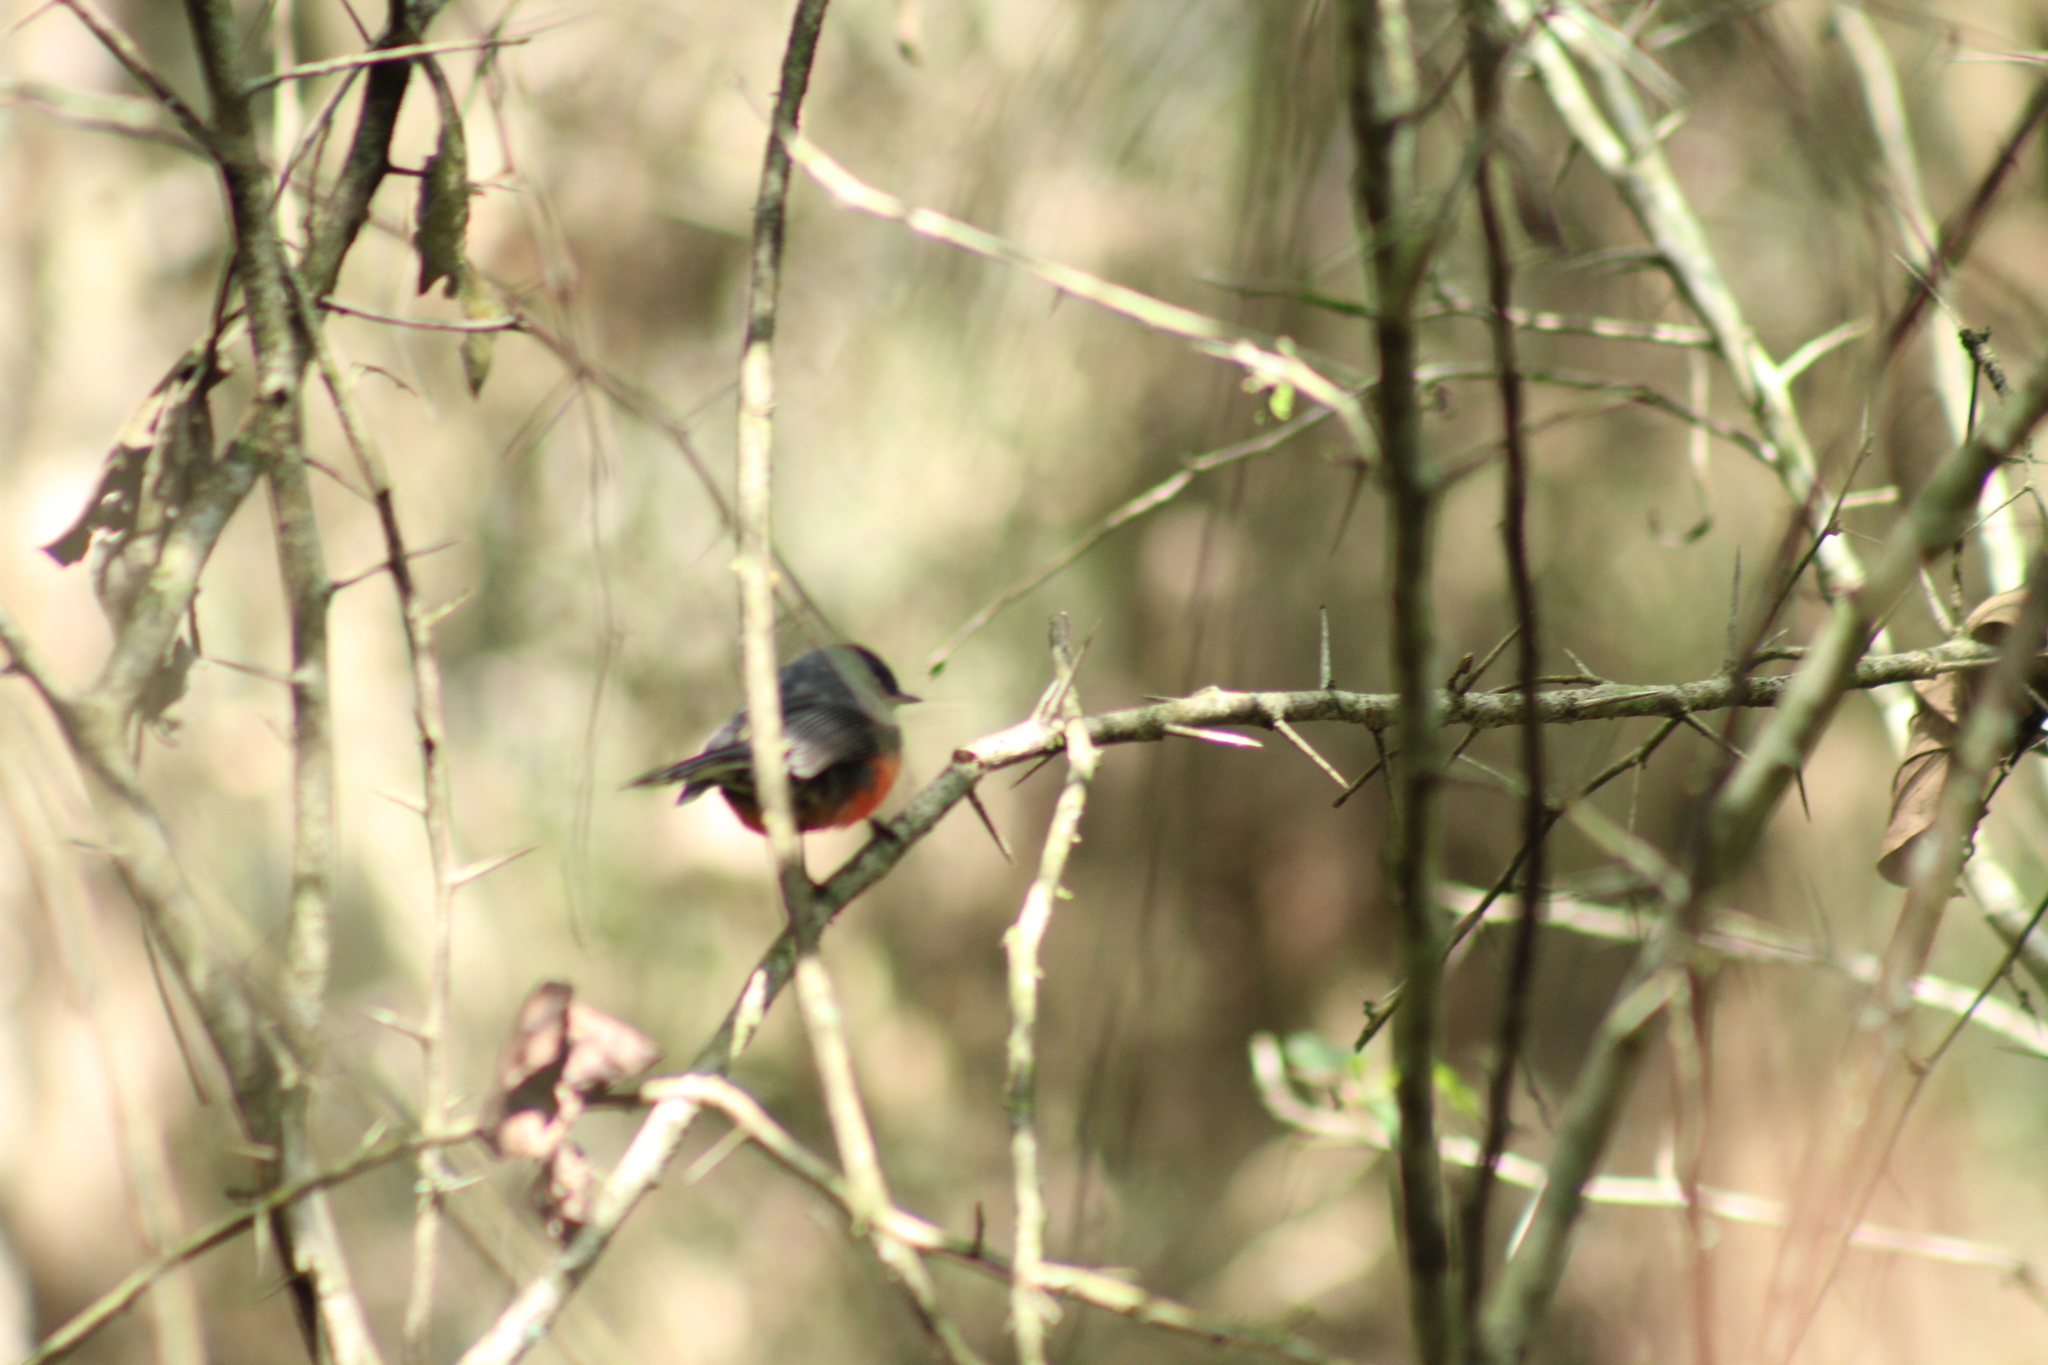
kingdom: Animalia
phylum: Chordata
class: Aves
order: Passeriformes
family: Parulidae
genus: Myioborus
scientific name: Myioborus miniatus
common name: Slate-throated redstart
